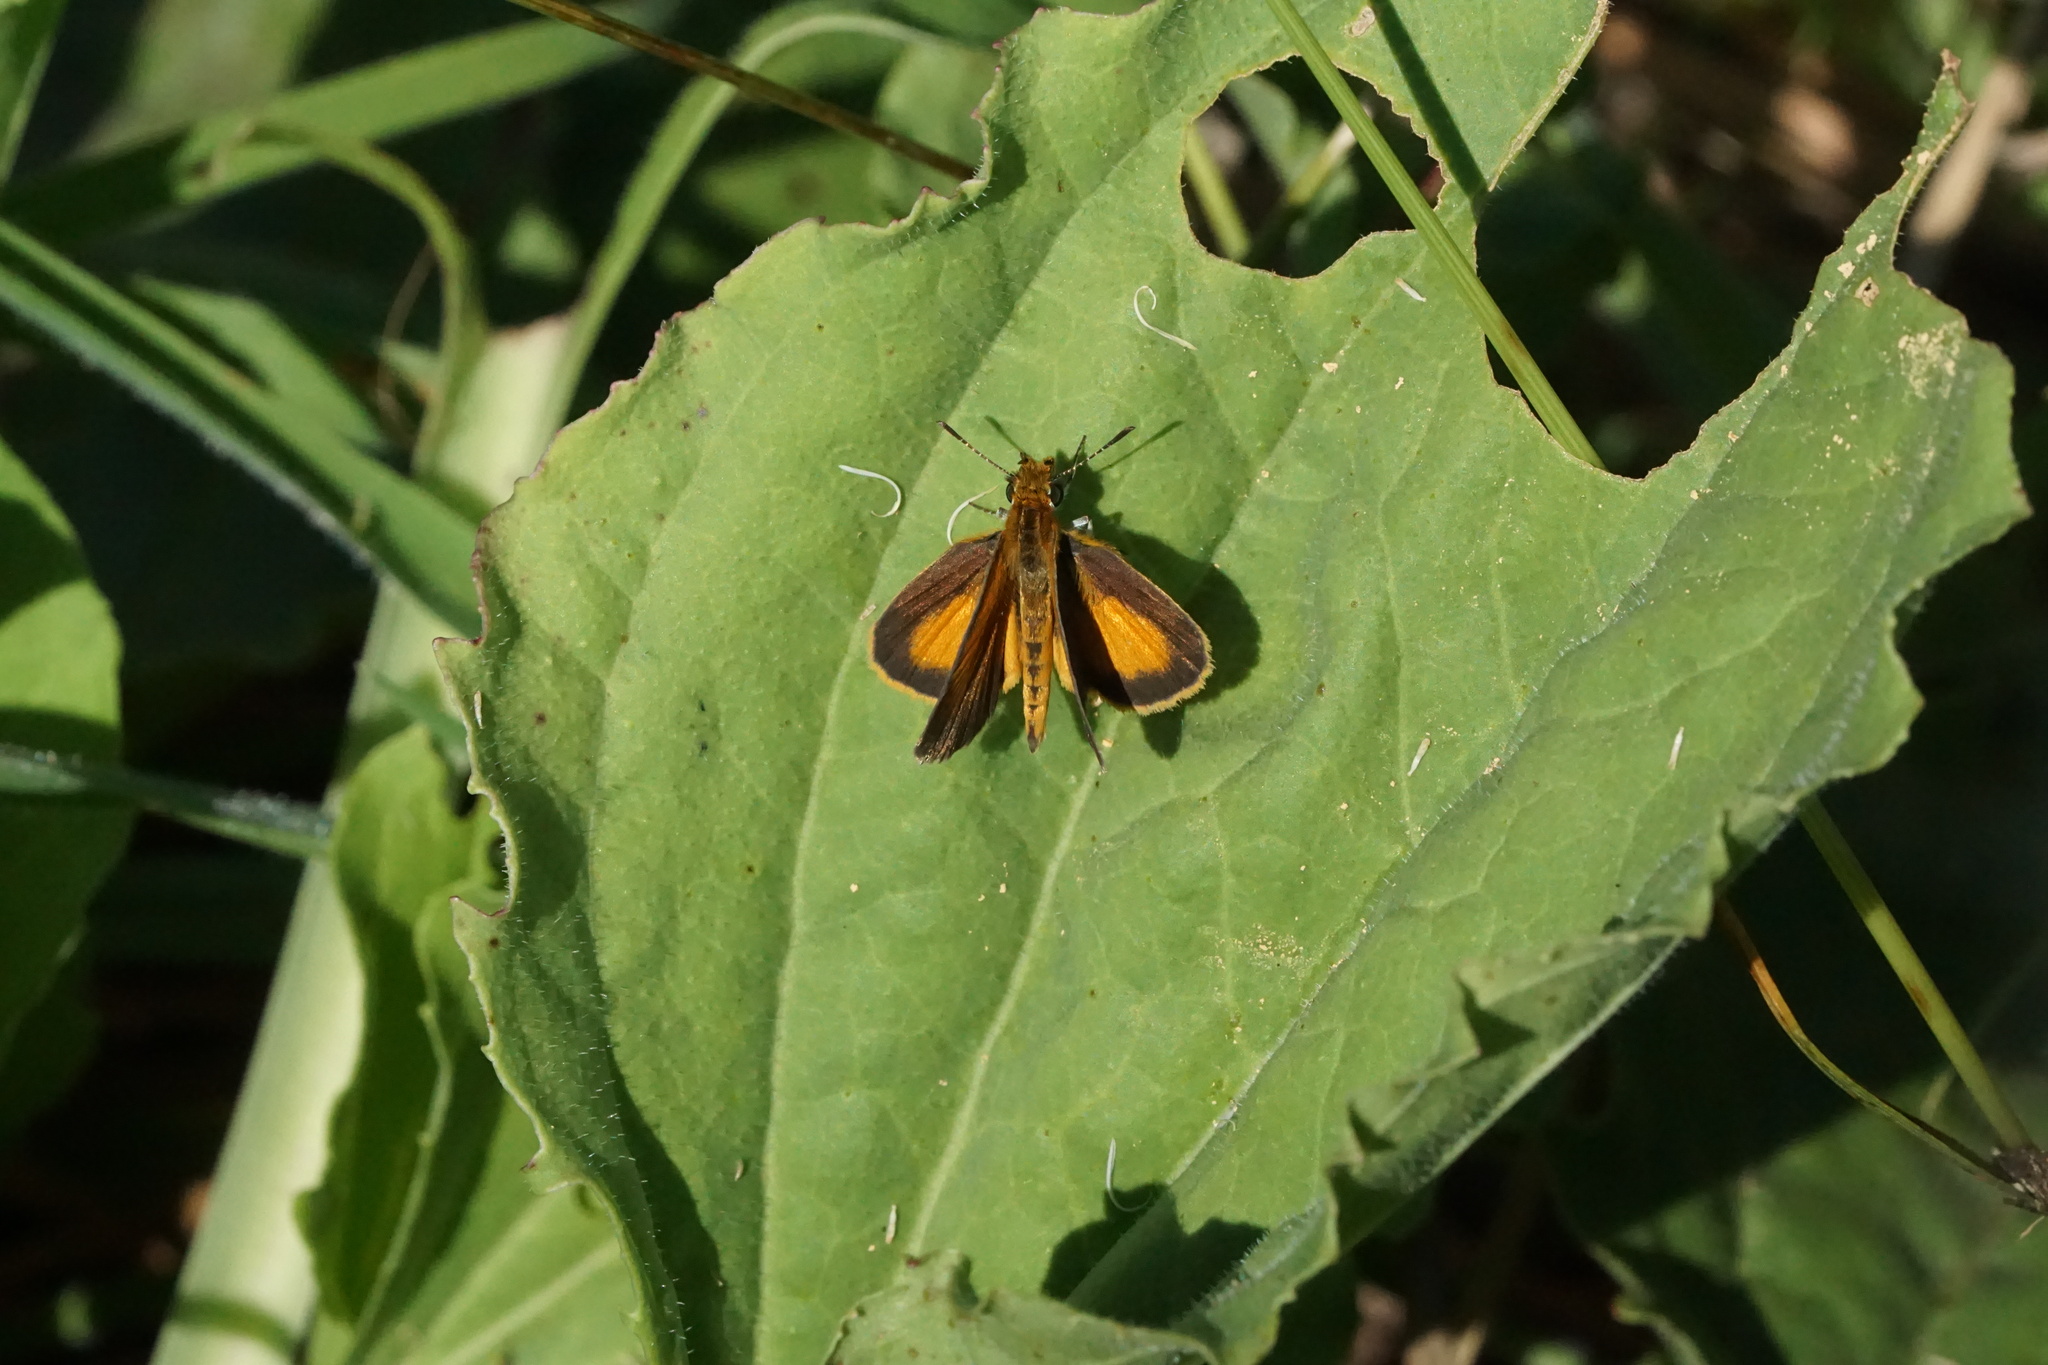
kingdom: Animalia
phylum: Arthropoda
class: Insecta
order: Lepidoptera
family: Hesperiidae
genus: Ancyloxypha
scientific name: Ancyloxypha numitor
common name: Least skipper
